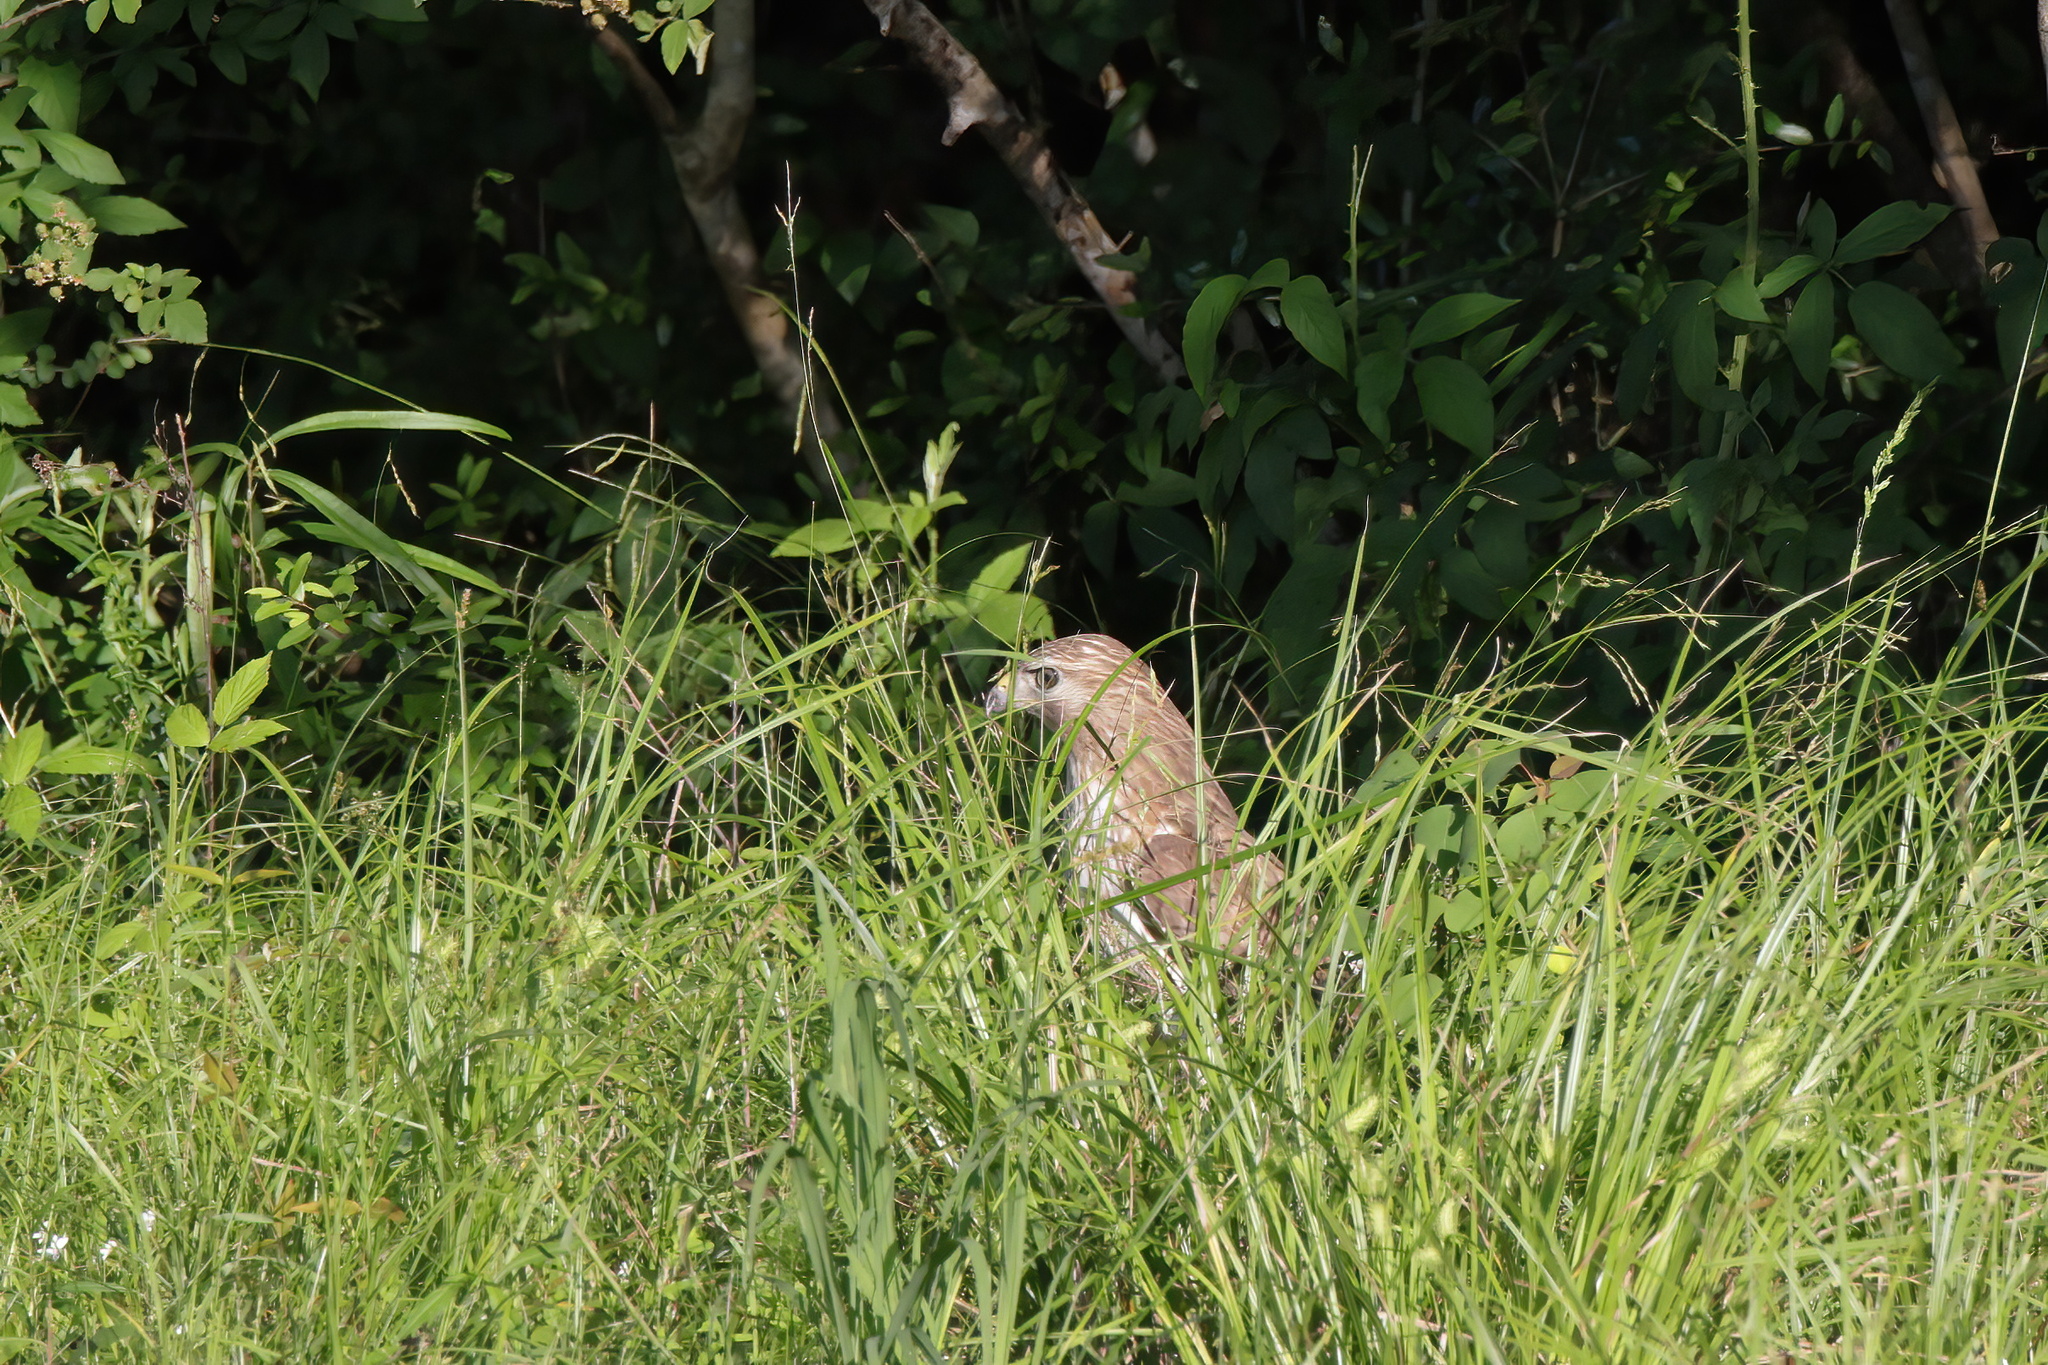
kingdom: Animalia
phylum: Chordata
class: Aves
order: Accipitriformes
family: Accipitridae
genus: Buteo
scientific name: Buteo lineatus
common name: Red-shouldered hawk
